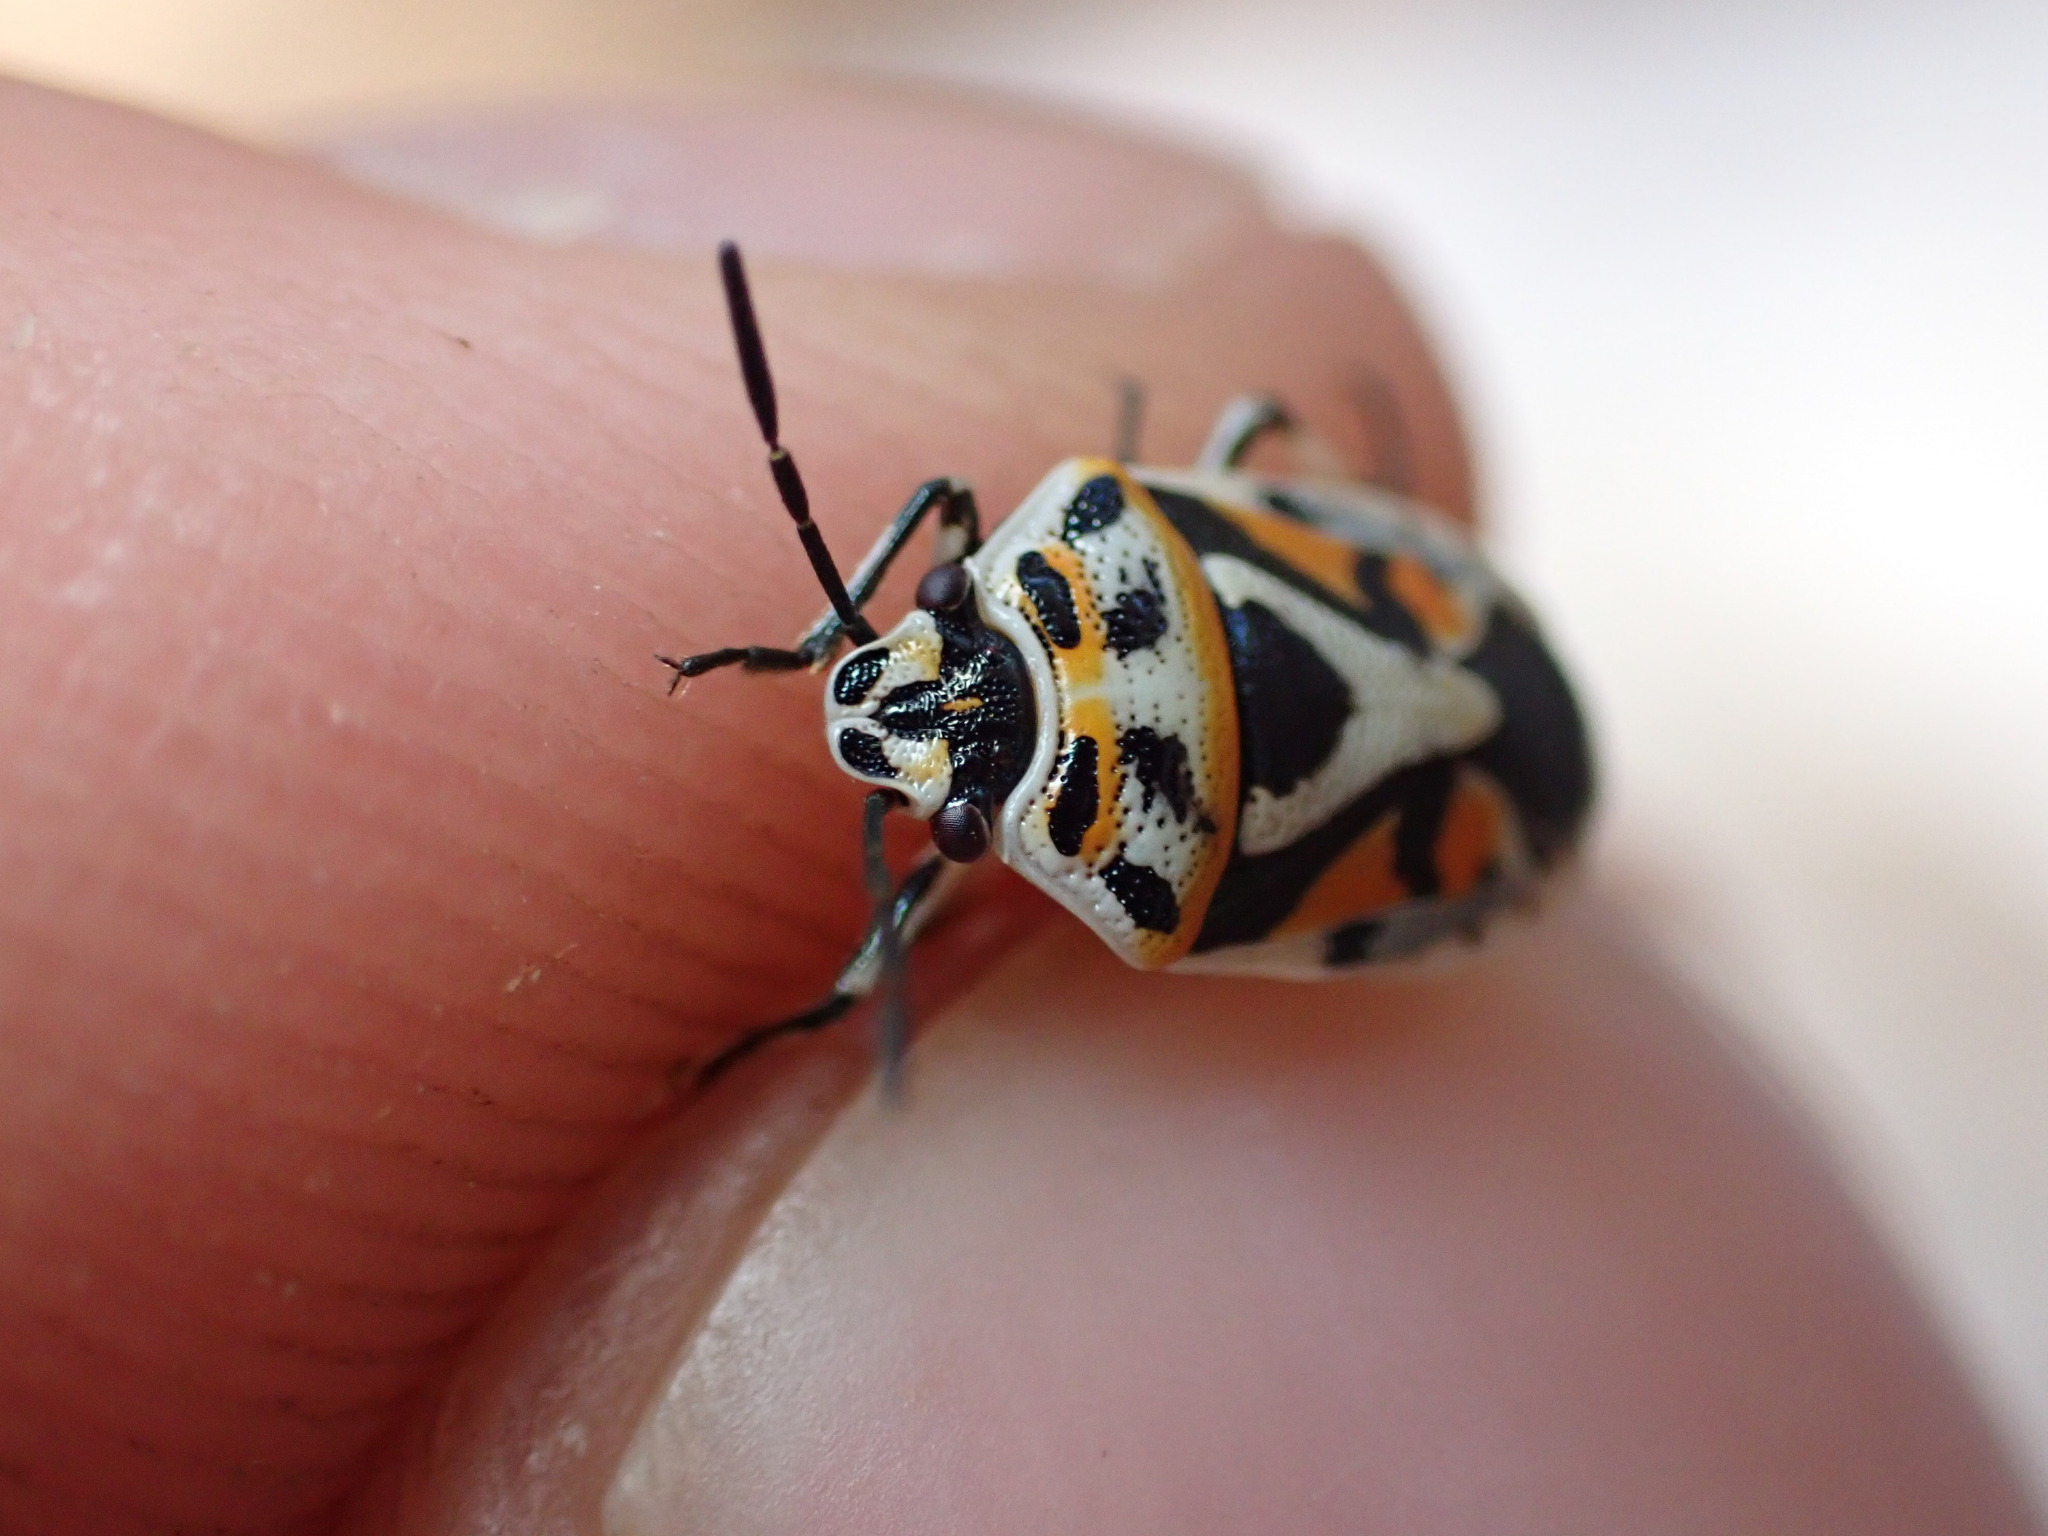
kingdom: Animalia
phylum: Arthropoda
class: Insecta
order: Hemiptera
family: Pentatomidae
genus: Eurydema
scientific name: Eurydema ornata
